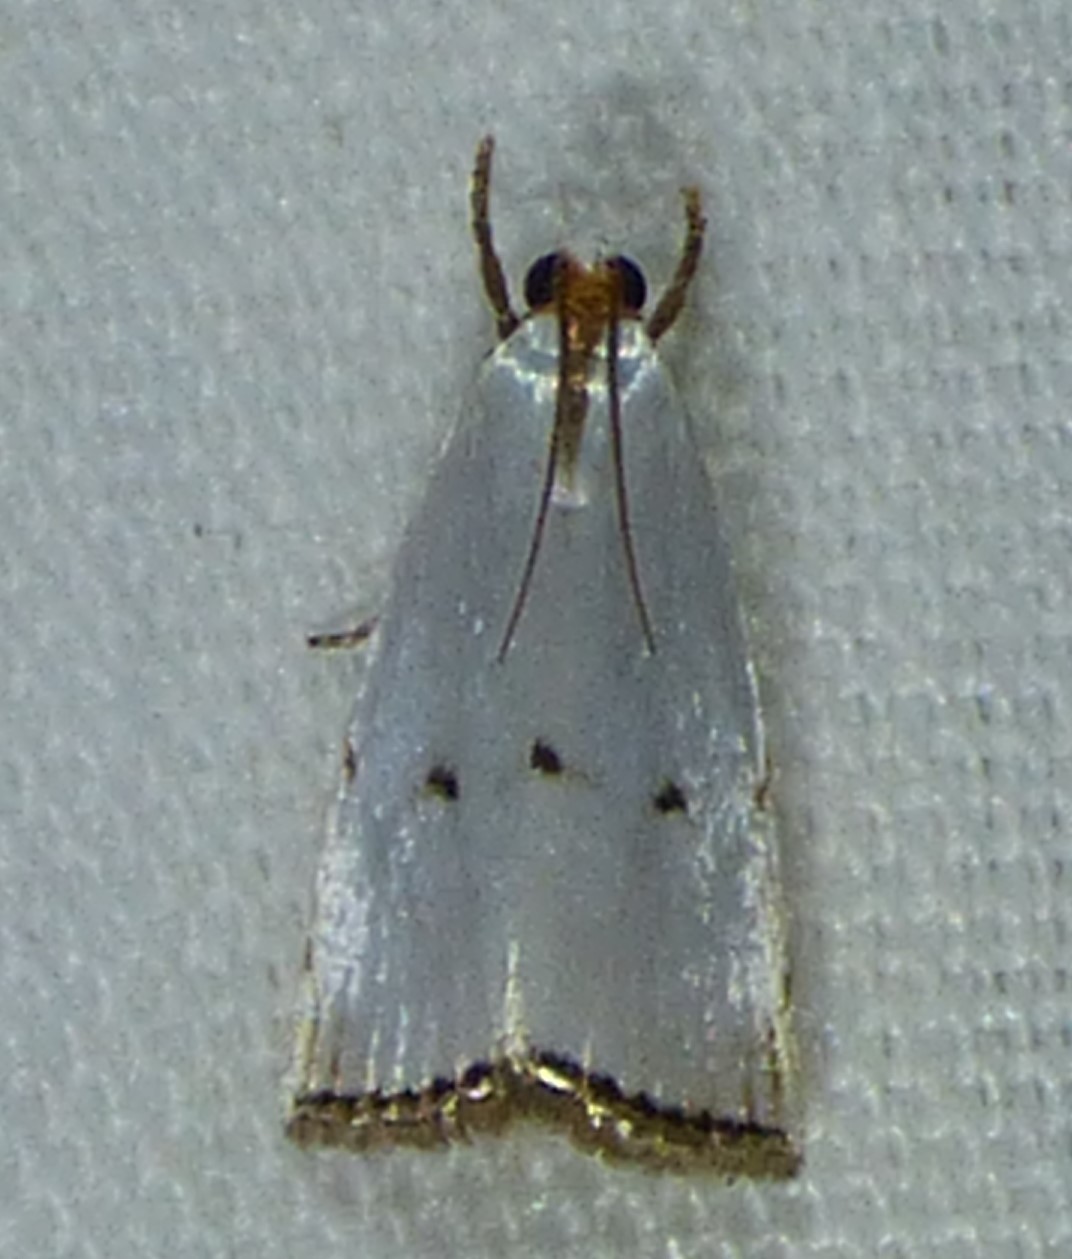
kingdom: Animalia
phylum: Arthropoda
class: Insecta
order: Lepidoptera
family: Crambidae
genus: Argyria
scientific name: Argyria pusillalis
